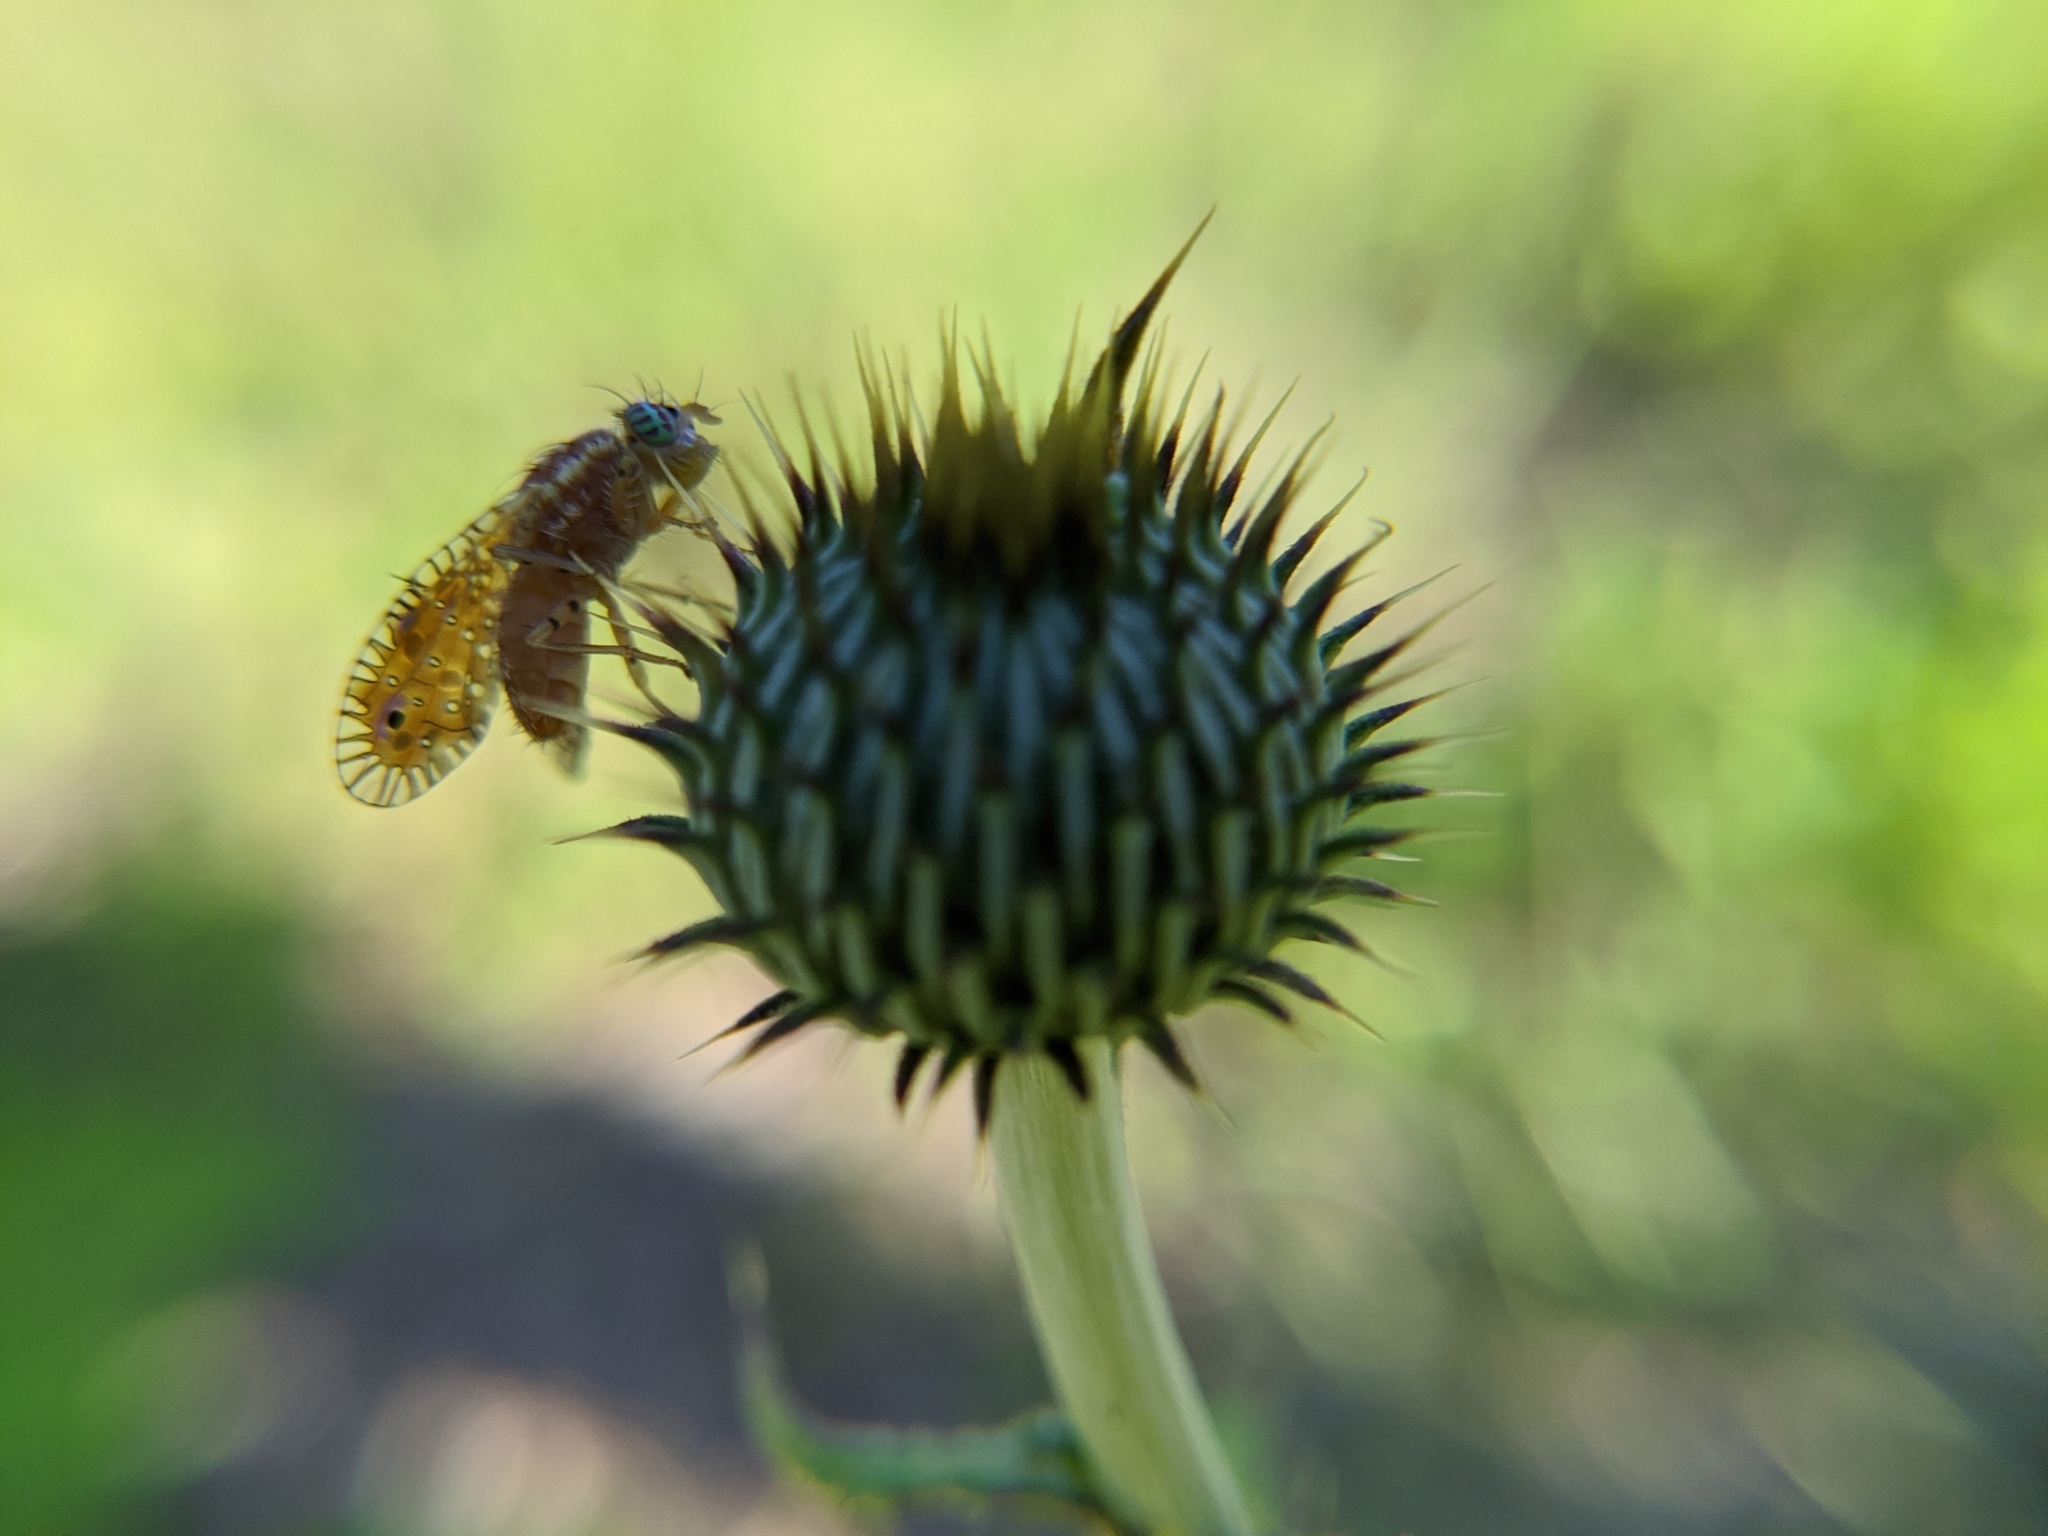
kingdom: Animalia
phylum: Arthropoda
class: Insecta
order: Diptera
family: Tephritidae
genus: Paracantha
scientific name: Paracantha culta
